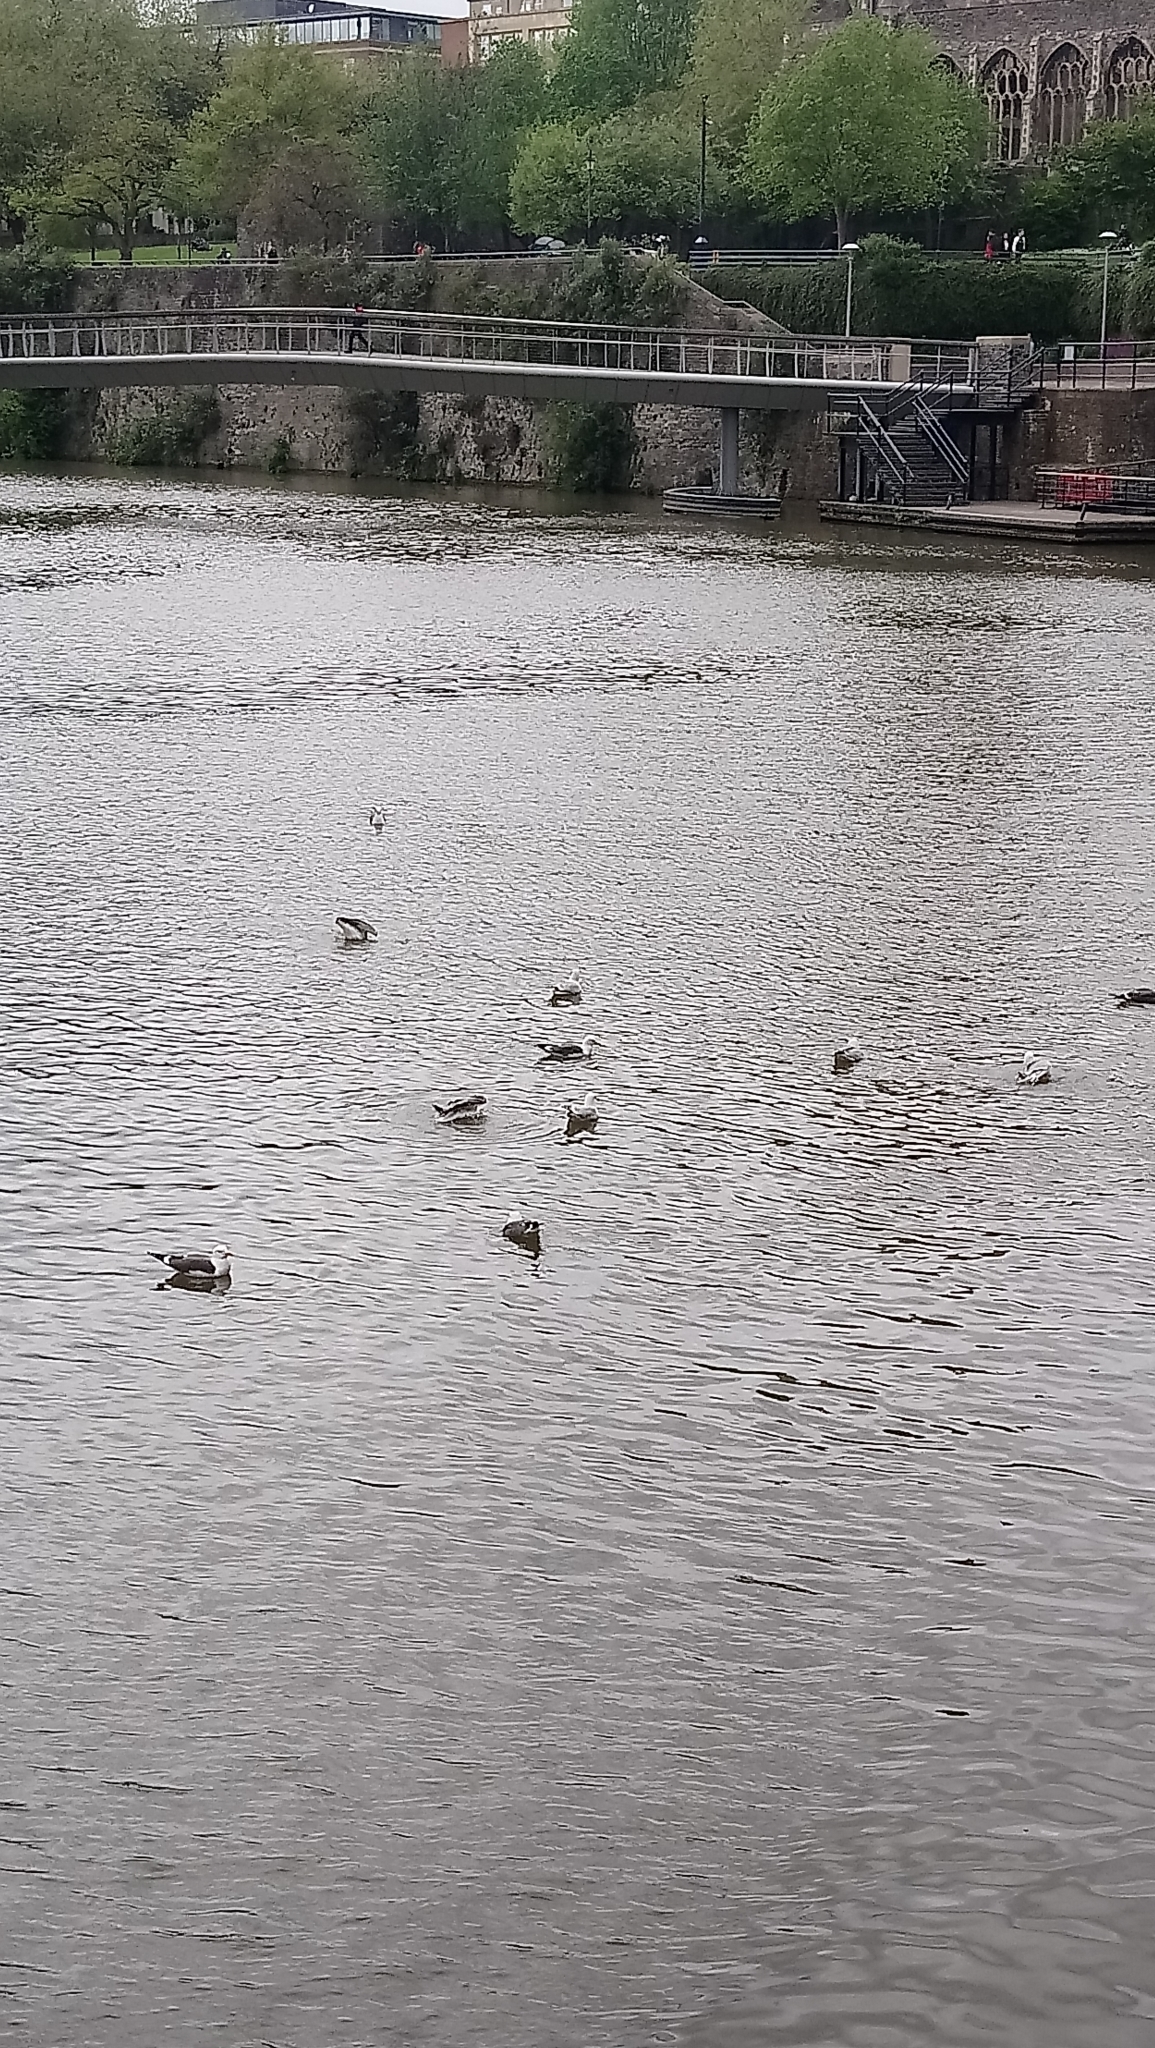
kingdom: Animalia
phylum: Chordata
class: Aves
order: Charadriiformes
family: Laridae
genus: Larus
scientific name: Larus fuscus
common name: Lesser black-backed gull
